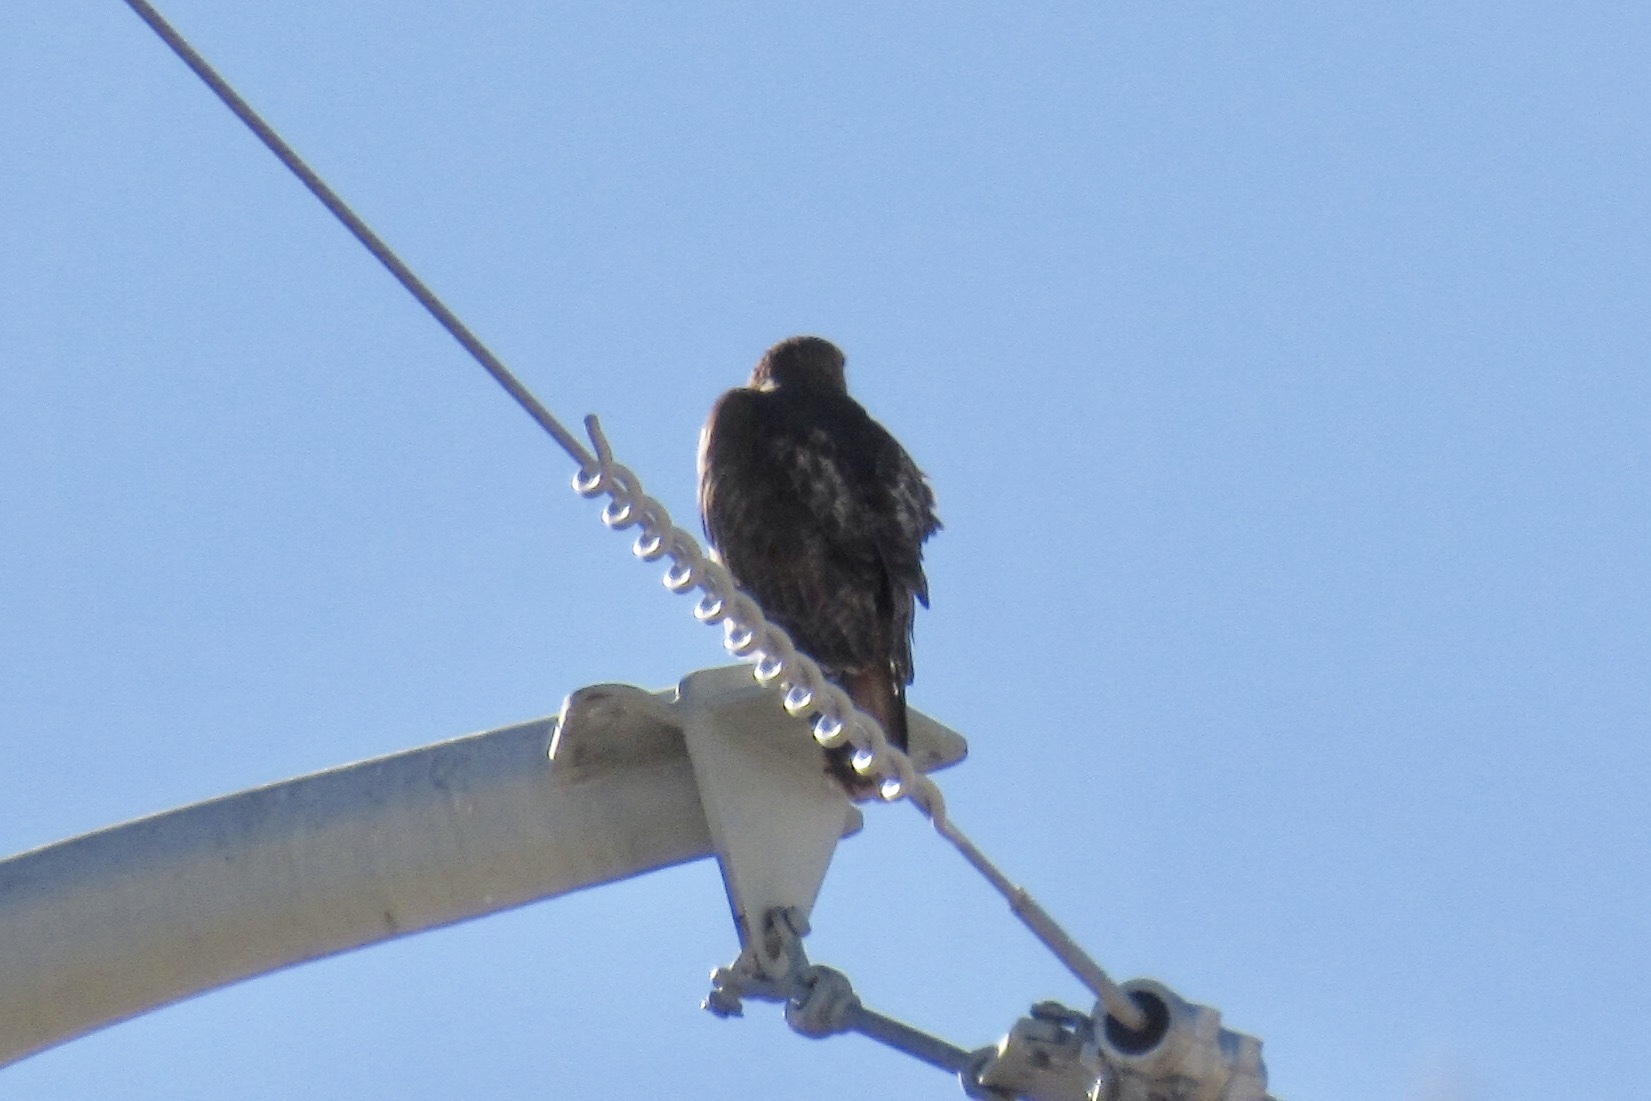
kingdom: Animalia
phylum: Chordata
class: Aves
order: Accipitriformes
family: Accipitridae
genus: Buteo
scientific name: Buteo jamaicensis
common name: Red-tailed hawk
